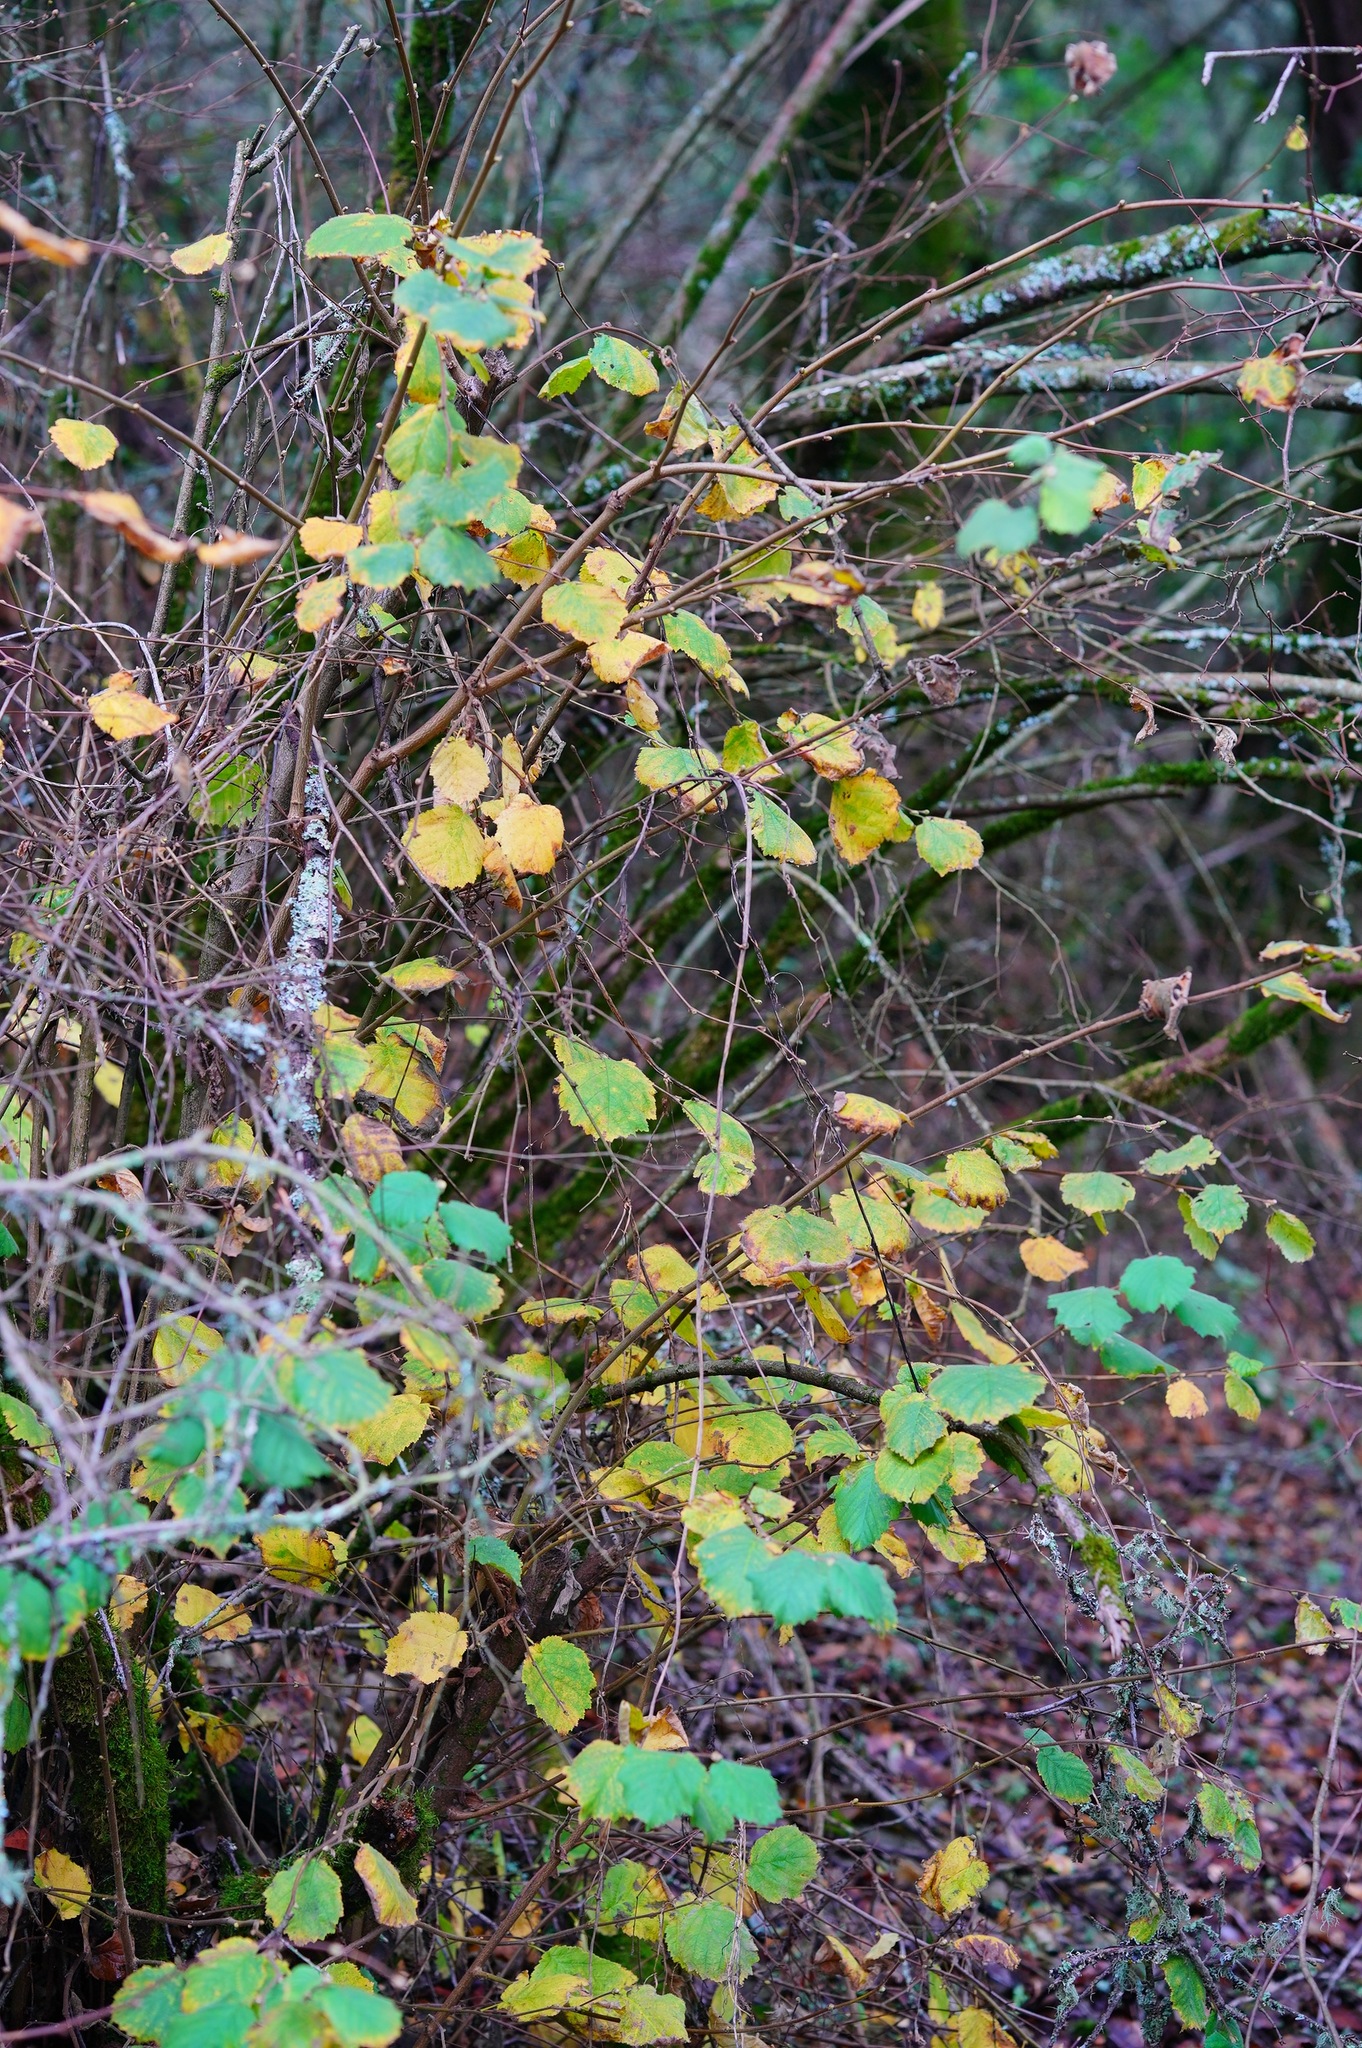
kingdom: Plantae
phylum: Tracheophyta
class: Magnoliopsida
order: Fagales
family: Betulaceae
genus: Corylus
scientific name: Corylus cornuta
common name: Beaked hazel
